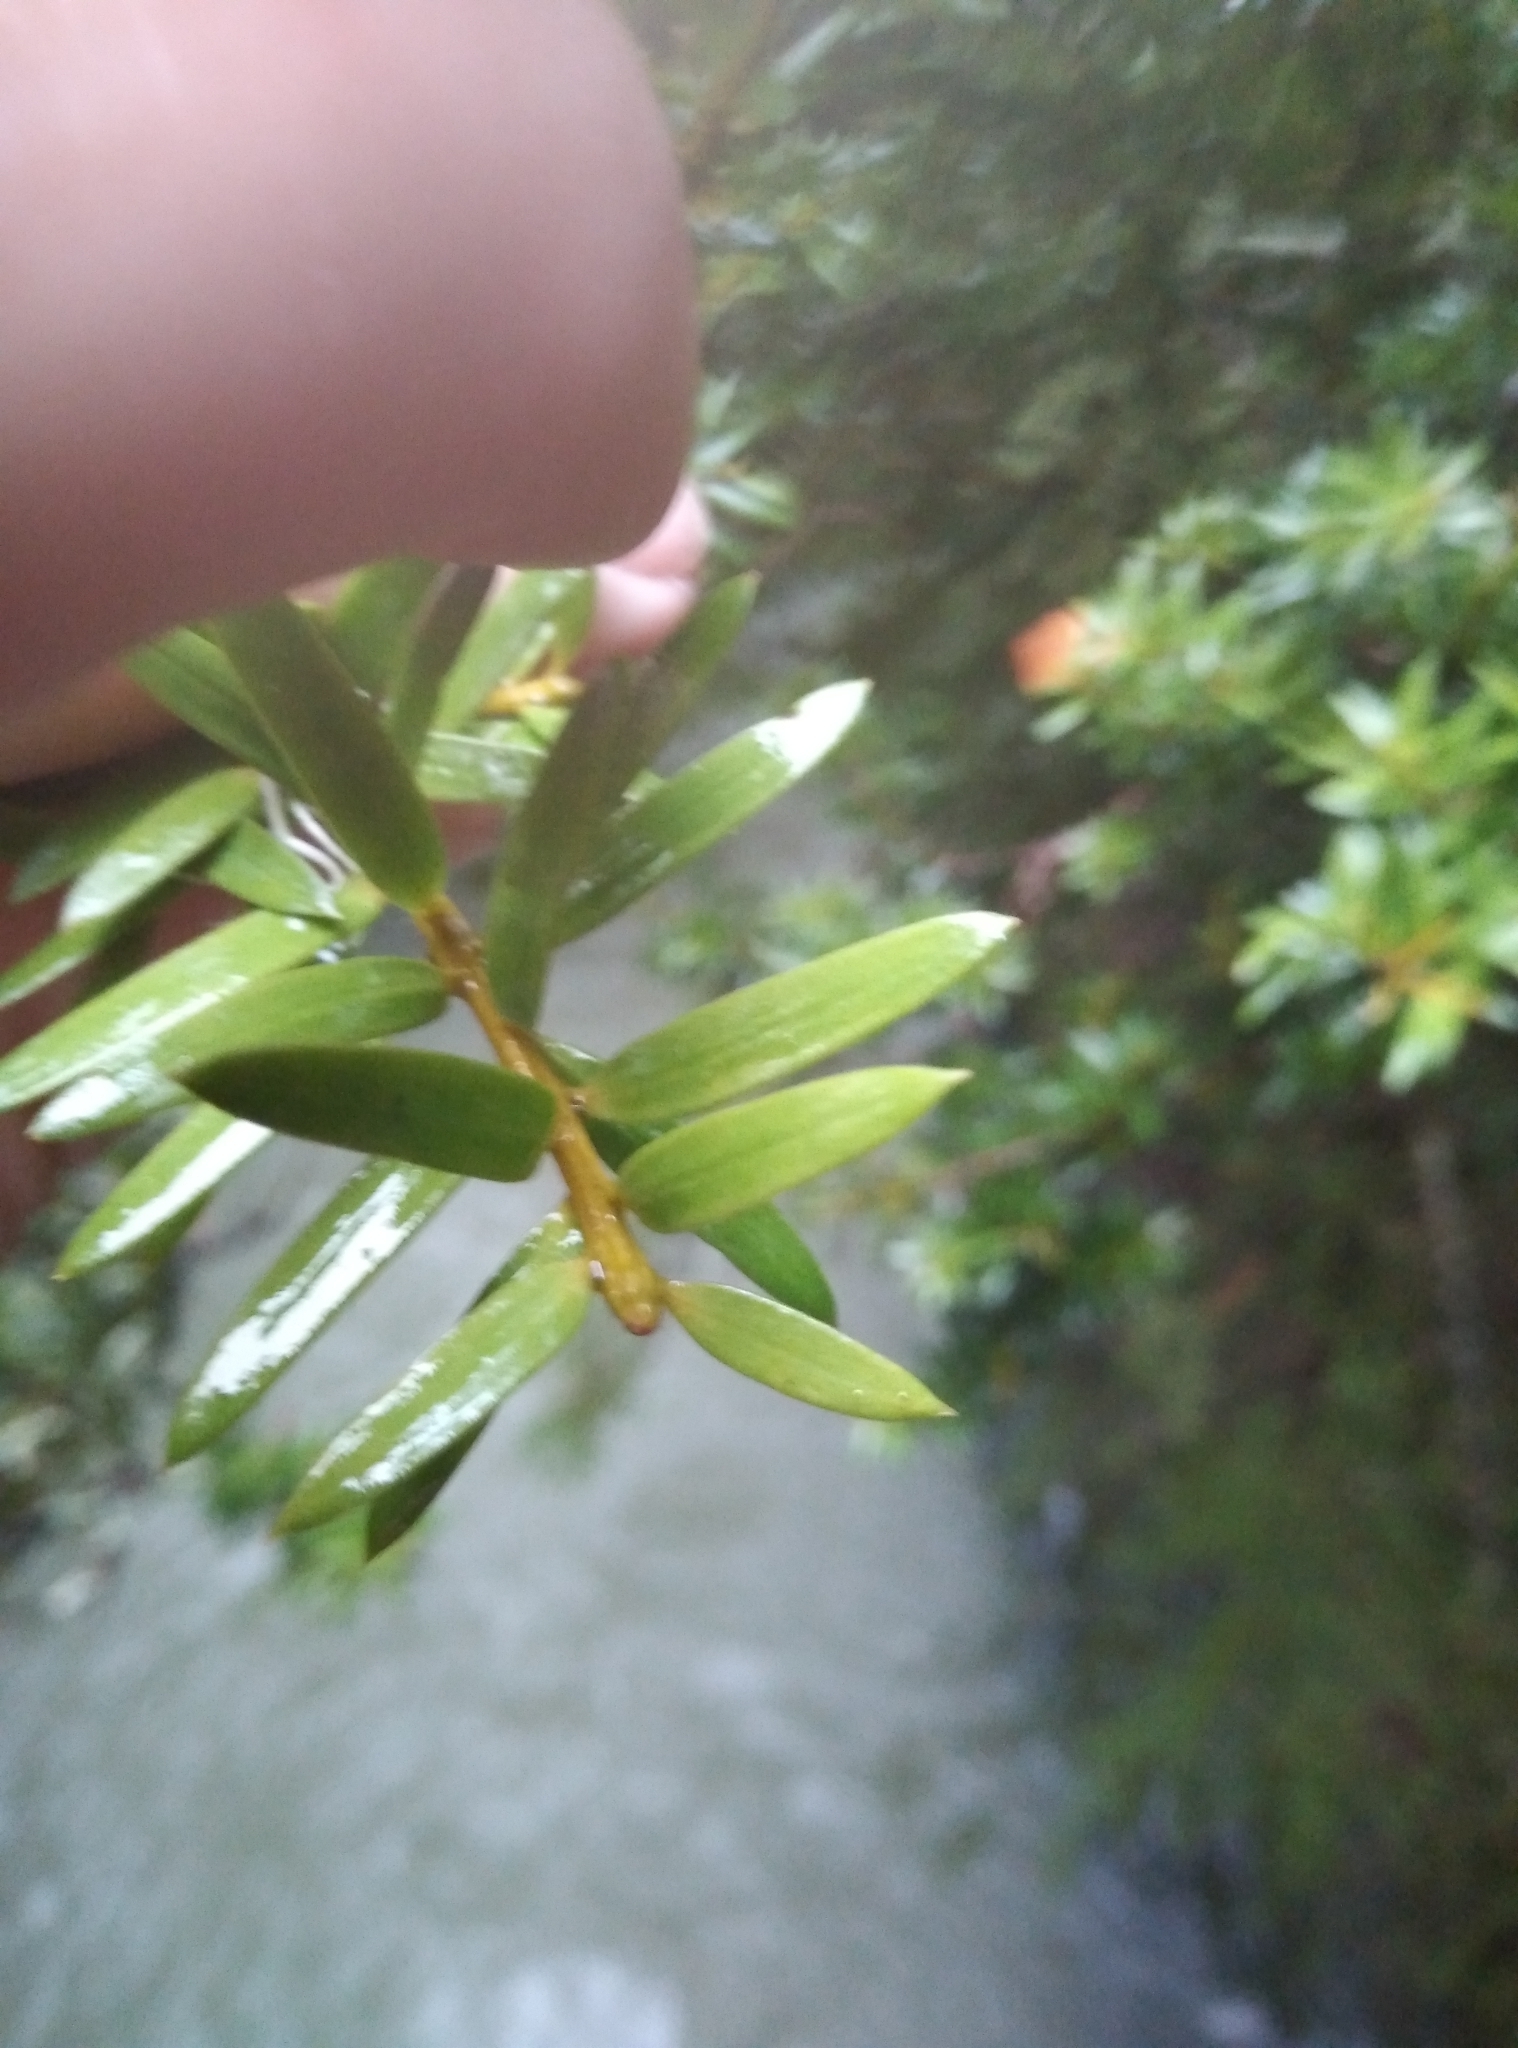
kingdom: Plantae
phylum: Tracheophyta
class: Pinopsida
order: Pinales
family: Podocarpaceae
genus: Podocarpus
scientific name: Podocarpus laetus
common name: Hall's totara
